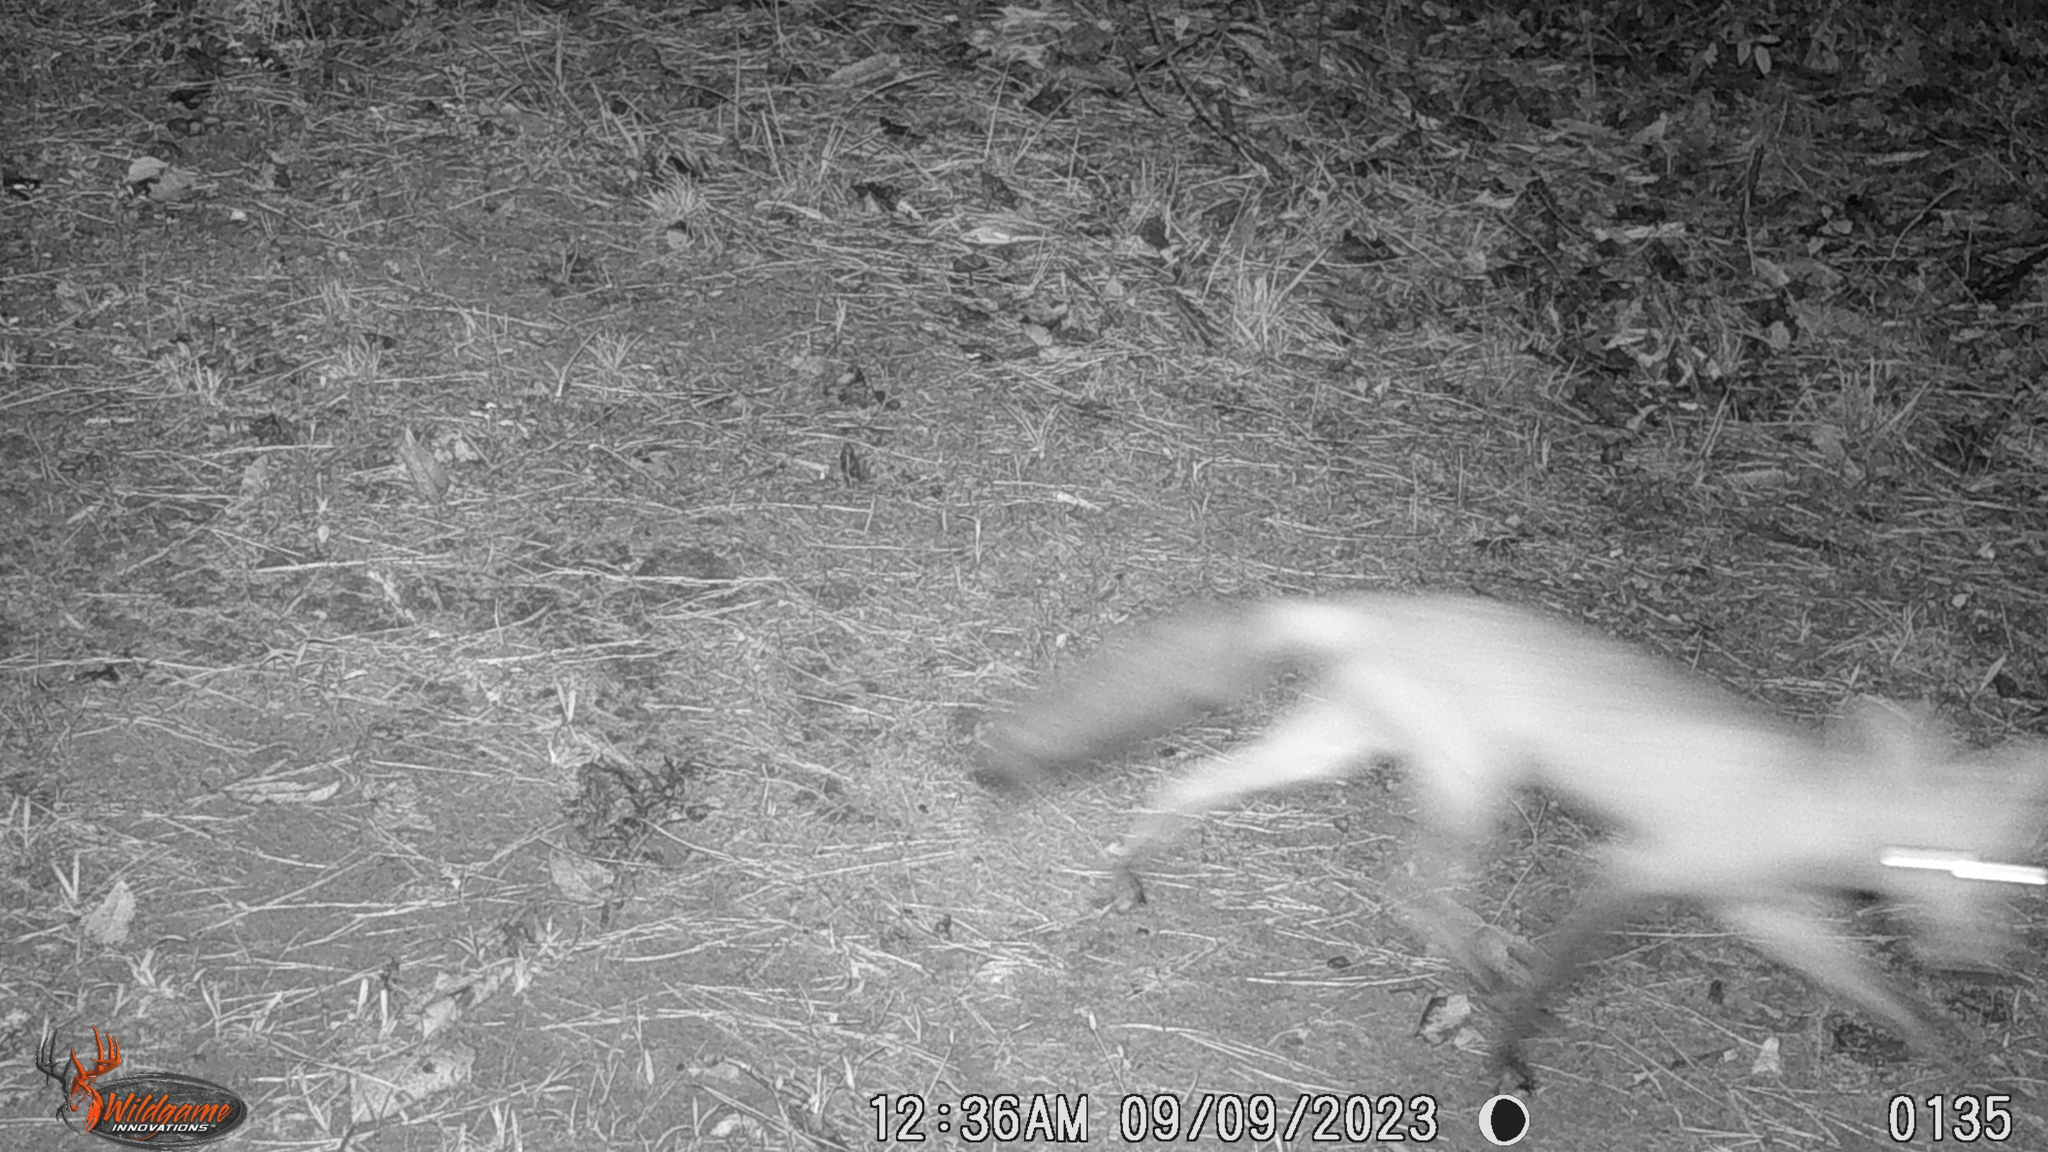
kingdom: Animalia
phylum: Chordata
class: Mammalia
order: Carnivora
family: Canidae
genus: Vulpes
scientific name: Vulpes vulpes
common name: Red fox
